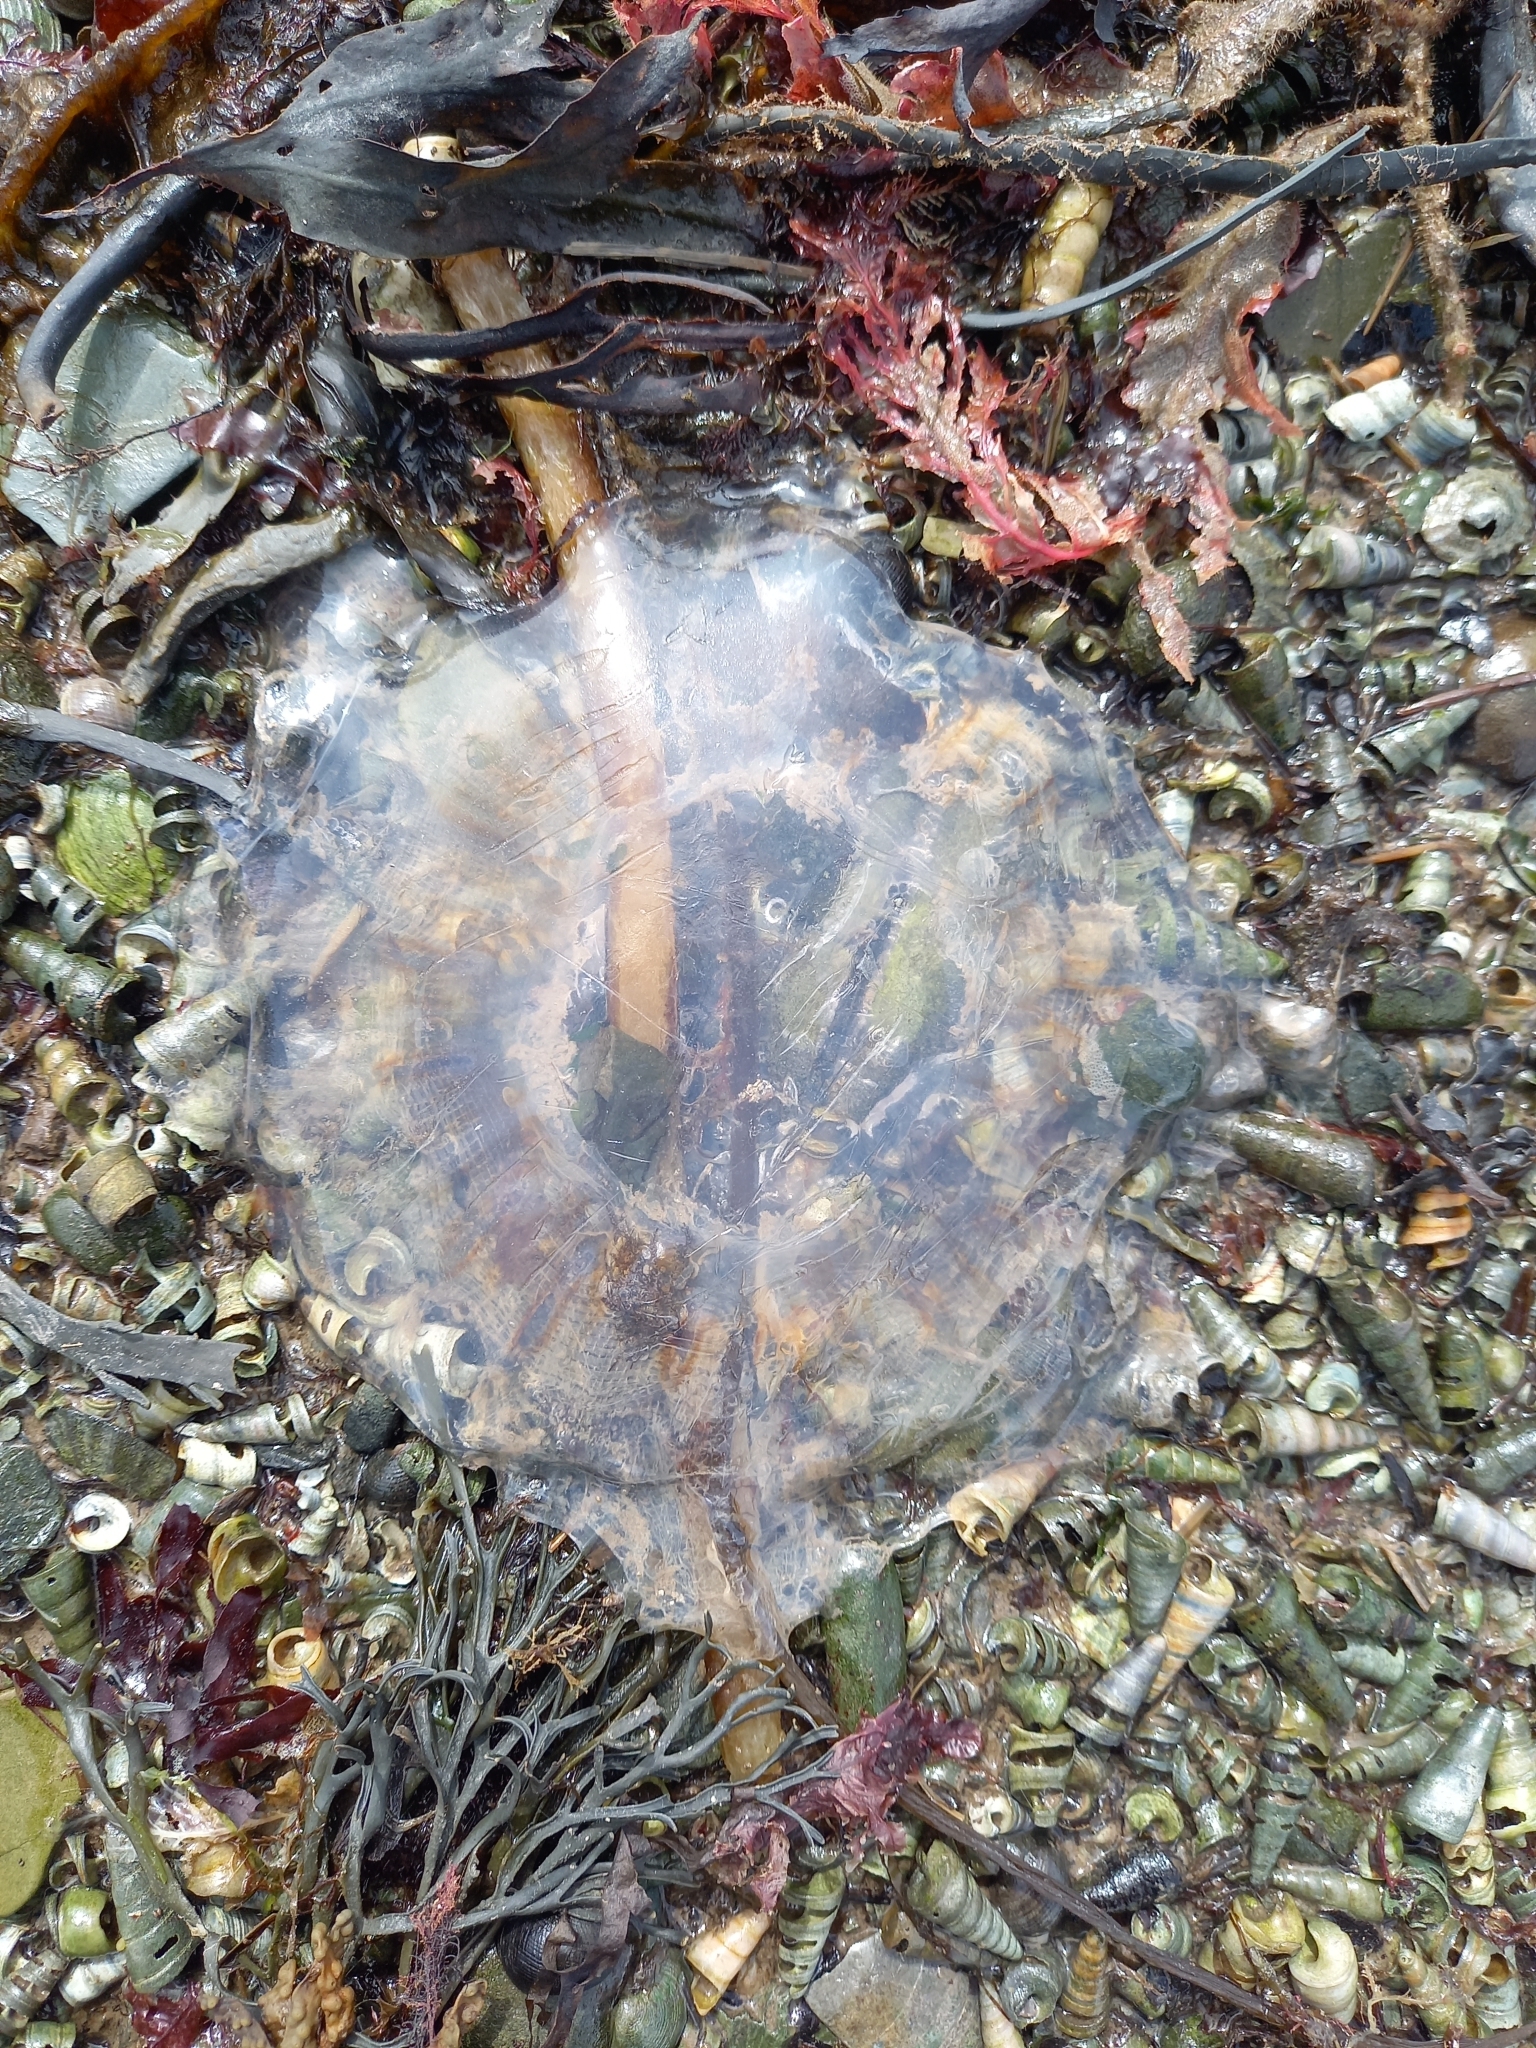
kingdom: Animalia
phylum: Cnidaria
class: Scyphozoa
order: Semaeostomeae
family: Cyaneidae
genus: Cyanea
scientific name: Cyanea capillata
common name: Lion's mane jellyfish
